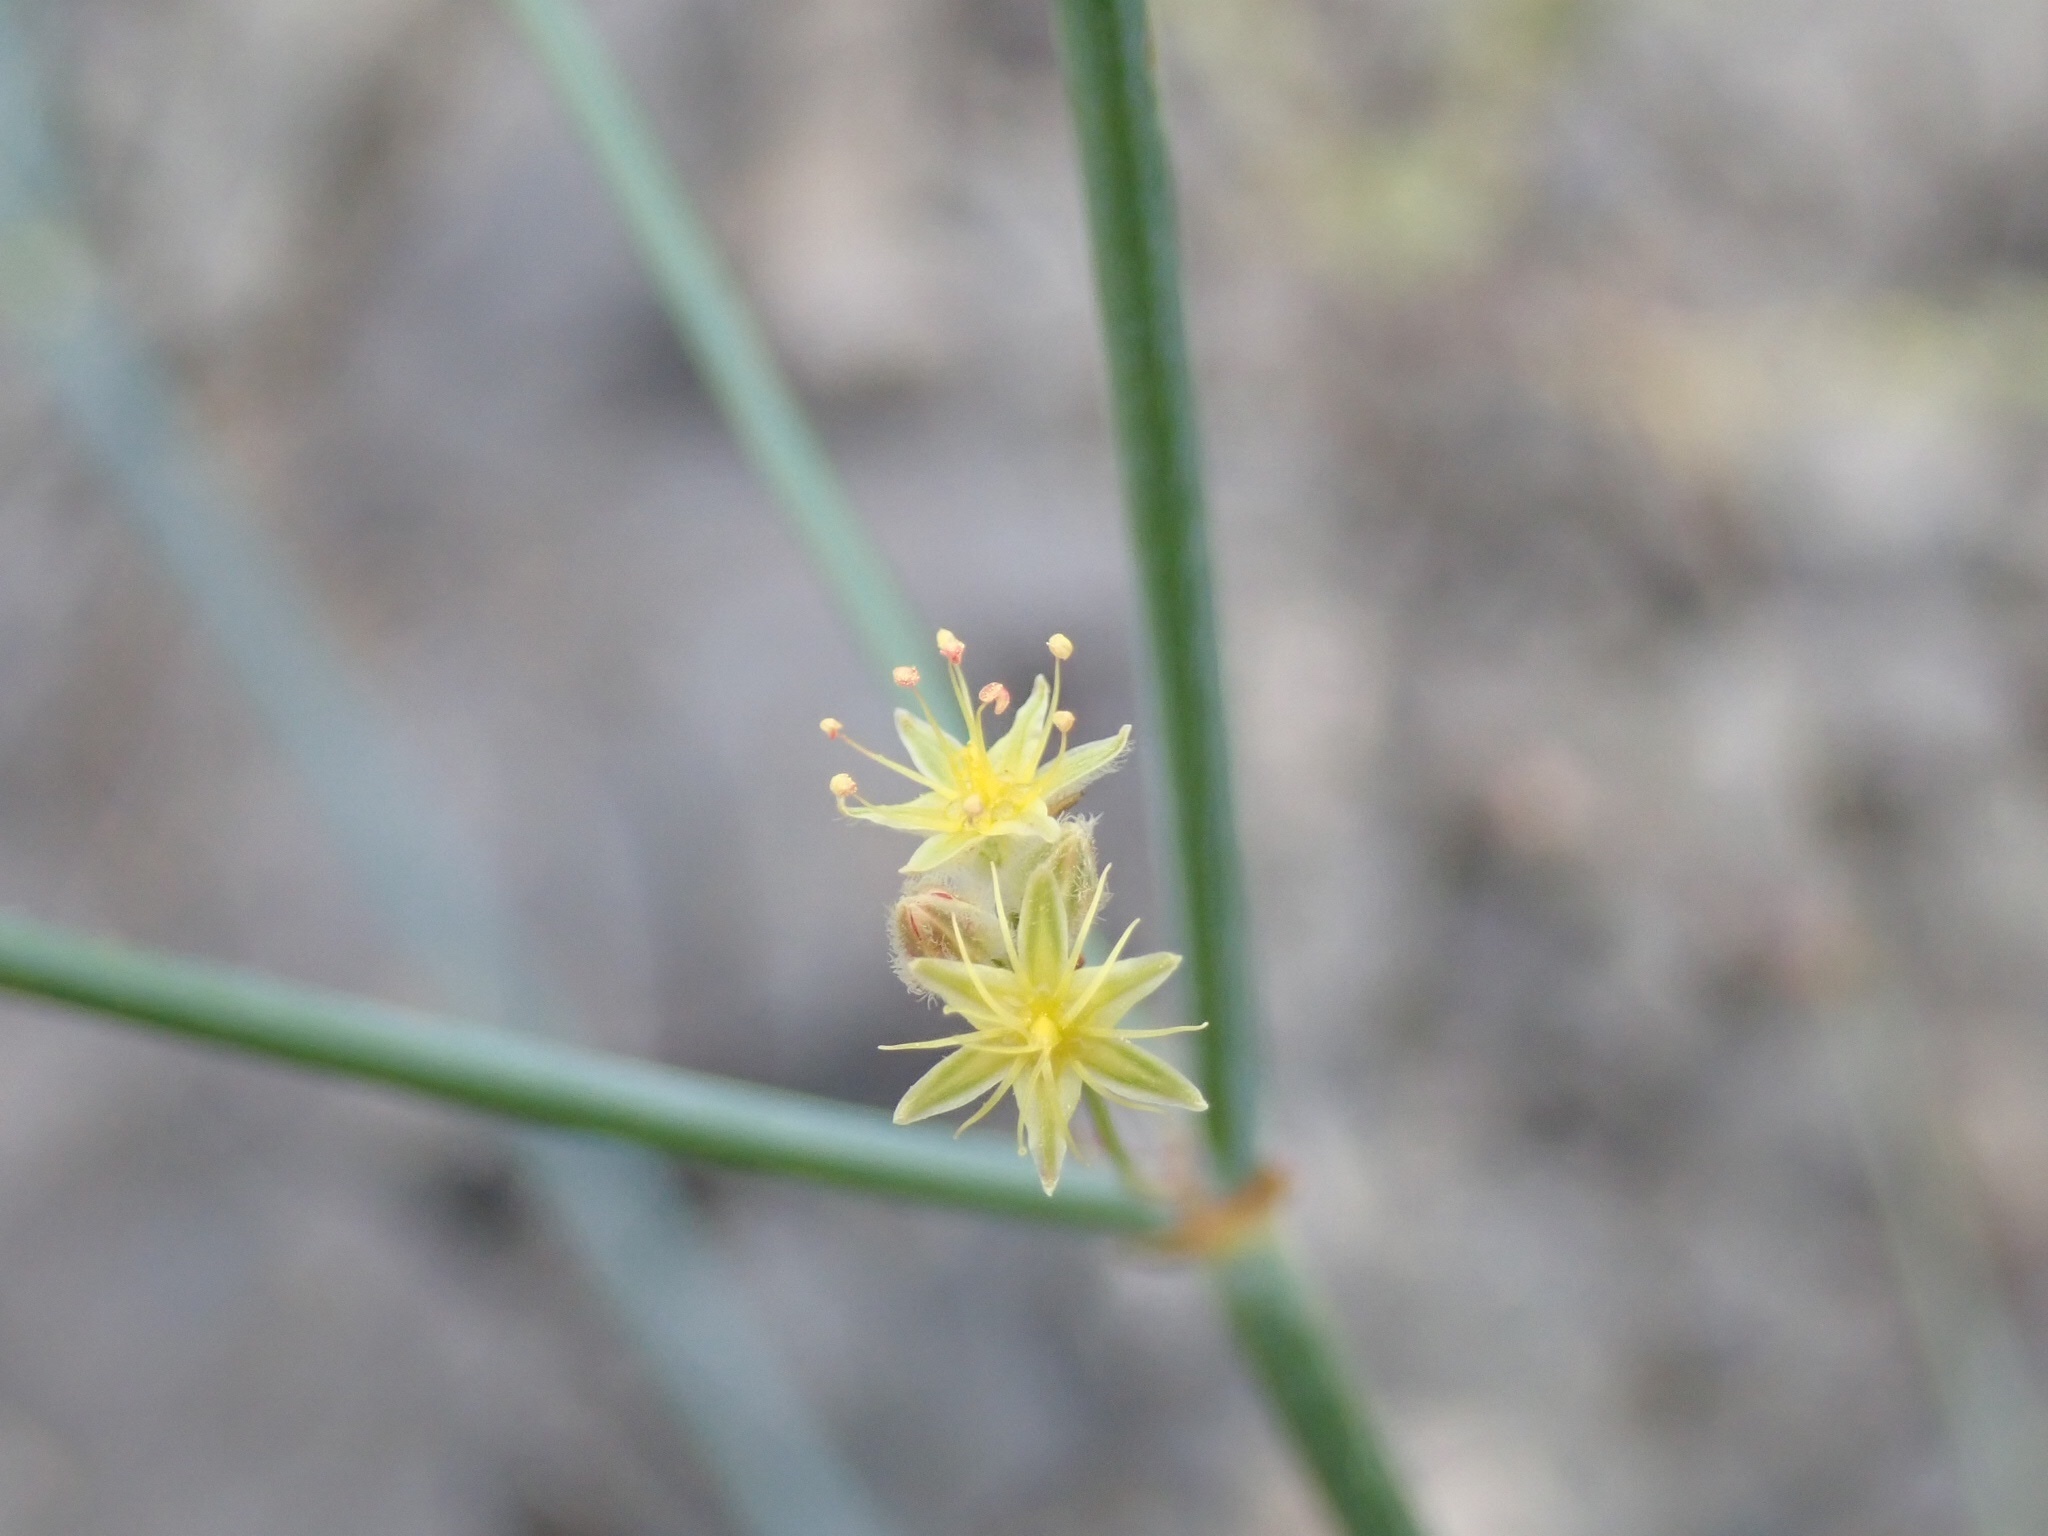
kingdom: Plantae
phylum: Tracheophyta
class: Magnoliopsida
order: Caryophyllales
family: Polygonaceae
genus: Eriogonum
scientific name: Eriogonum inflatum
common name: Desert trumpet
